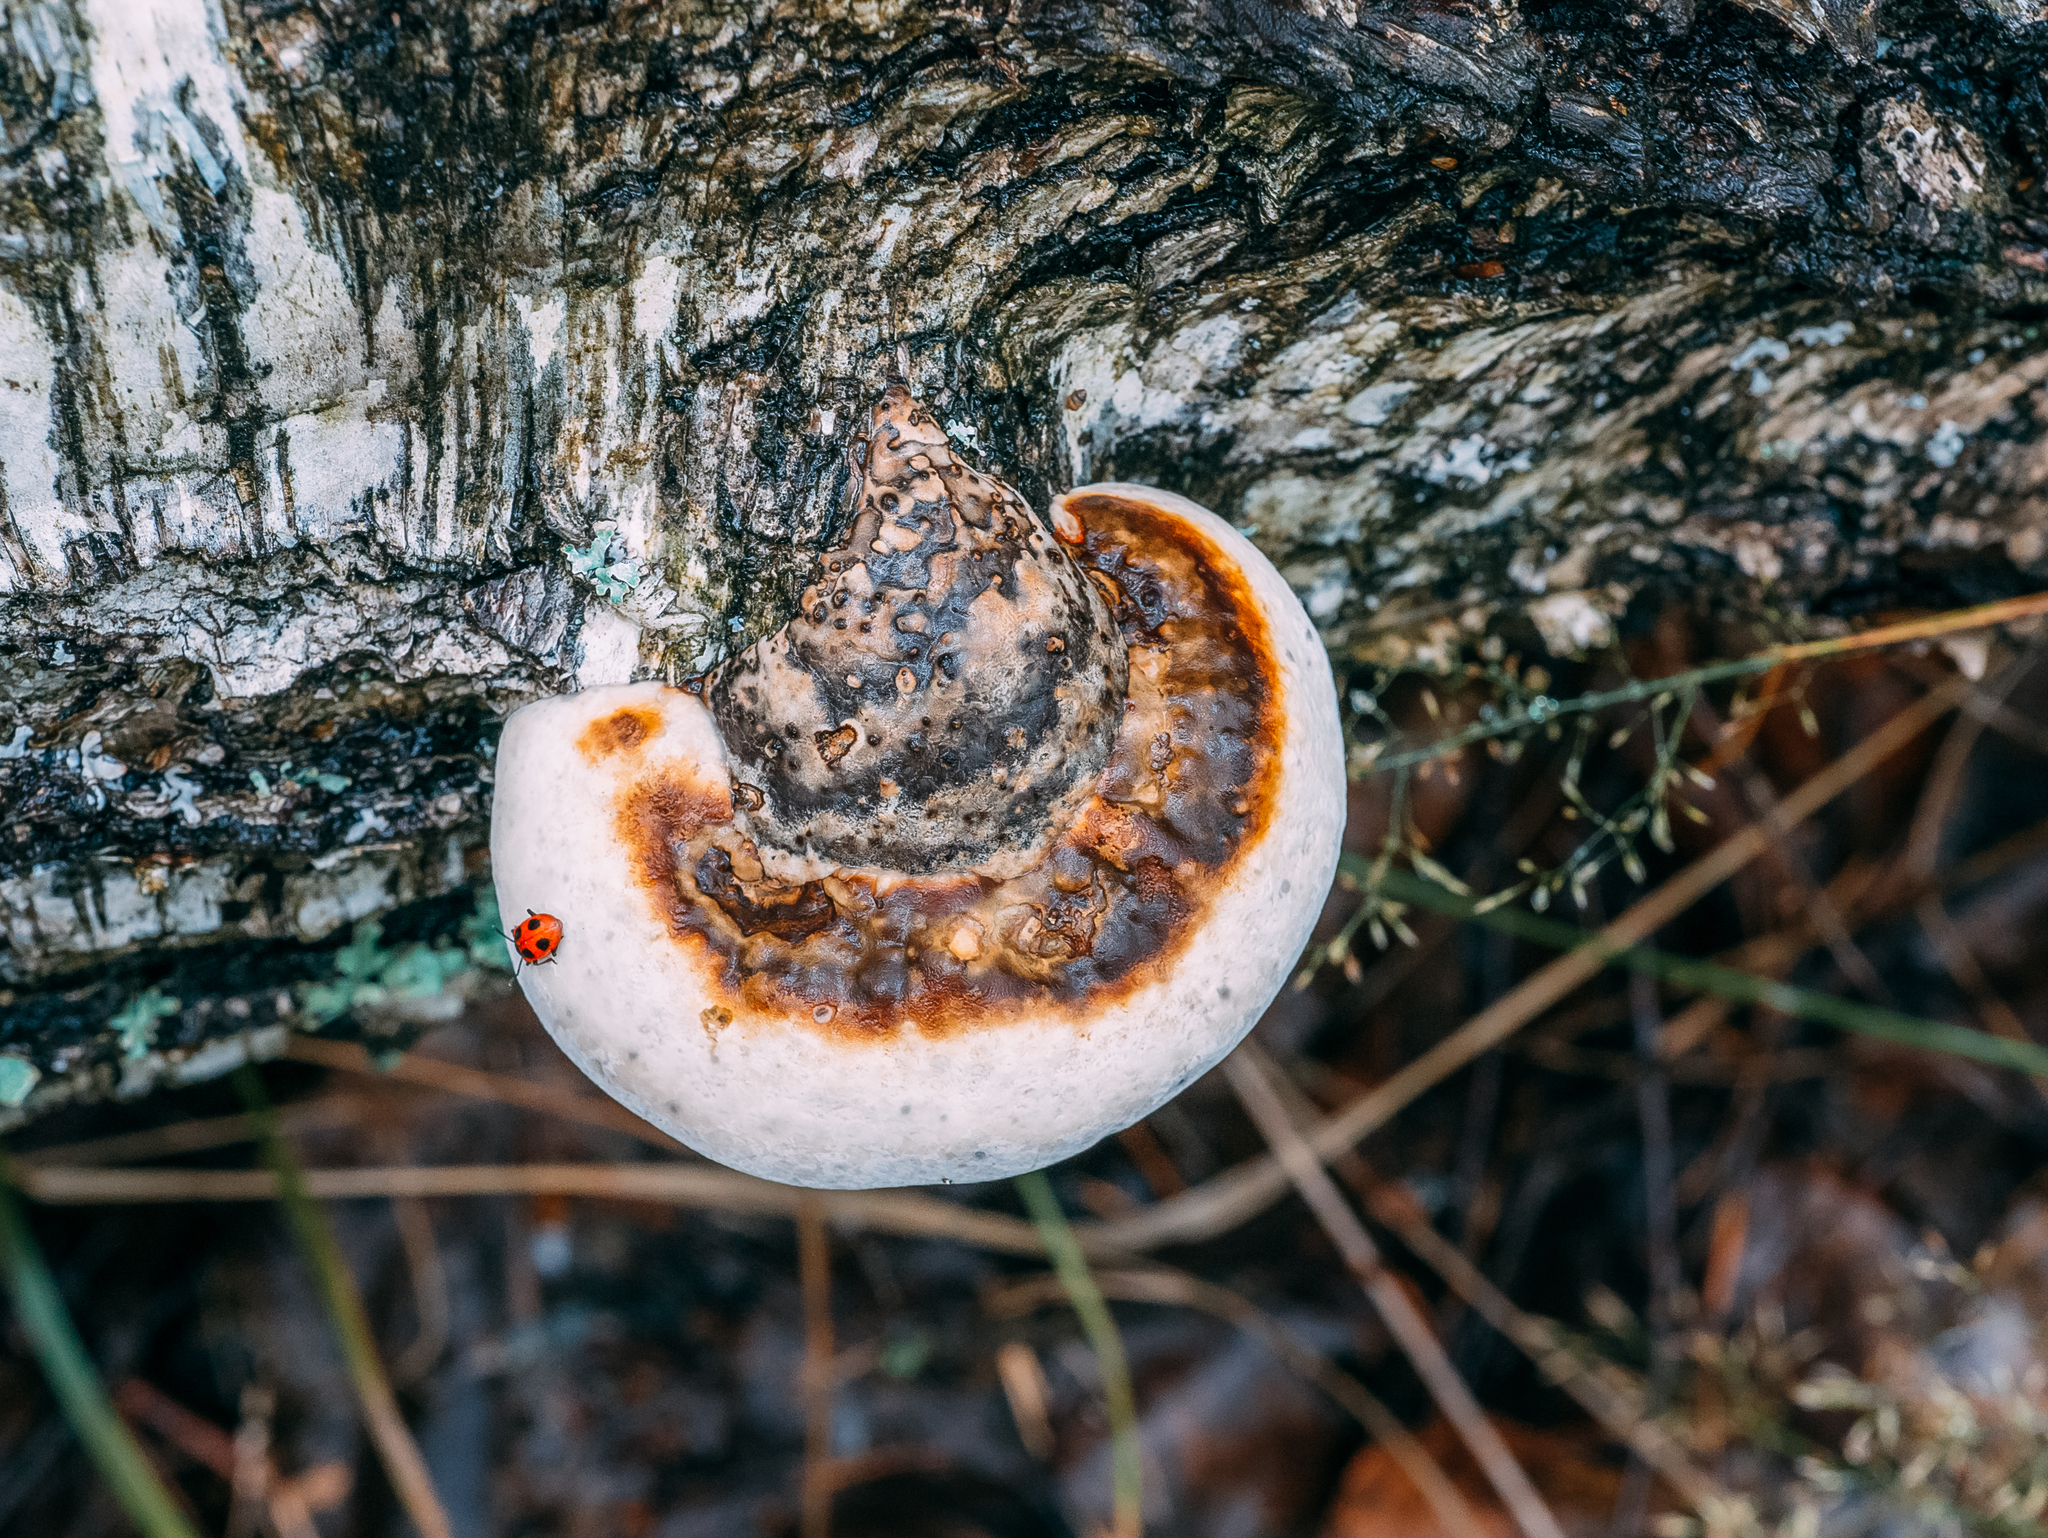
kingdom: Fungi
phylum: Basidiomycota
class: Agaricomycetes
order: Polyporales
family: Polyporaceae
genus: Fomes
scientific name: Fomes fomentarius
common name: Hoof fungus
